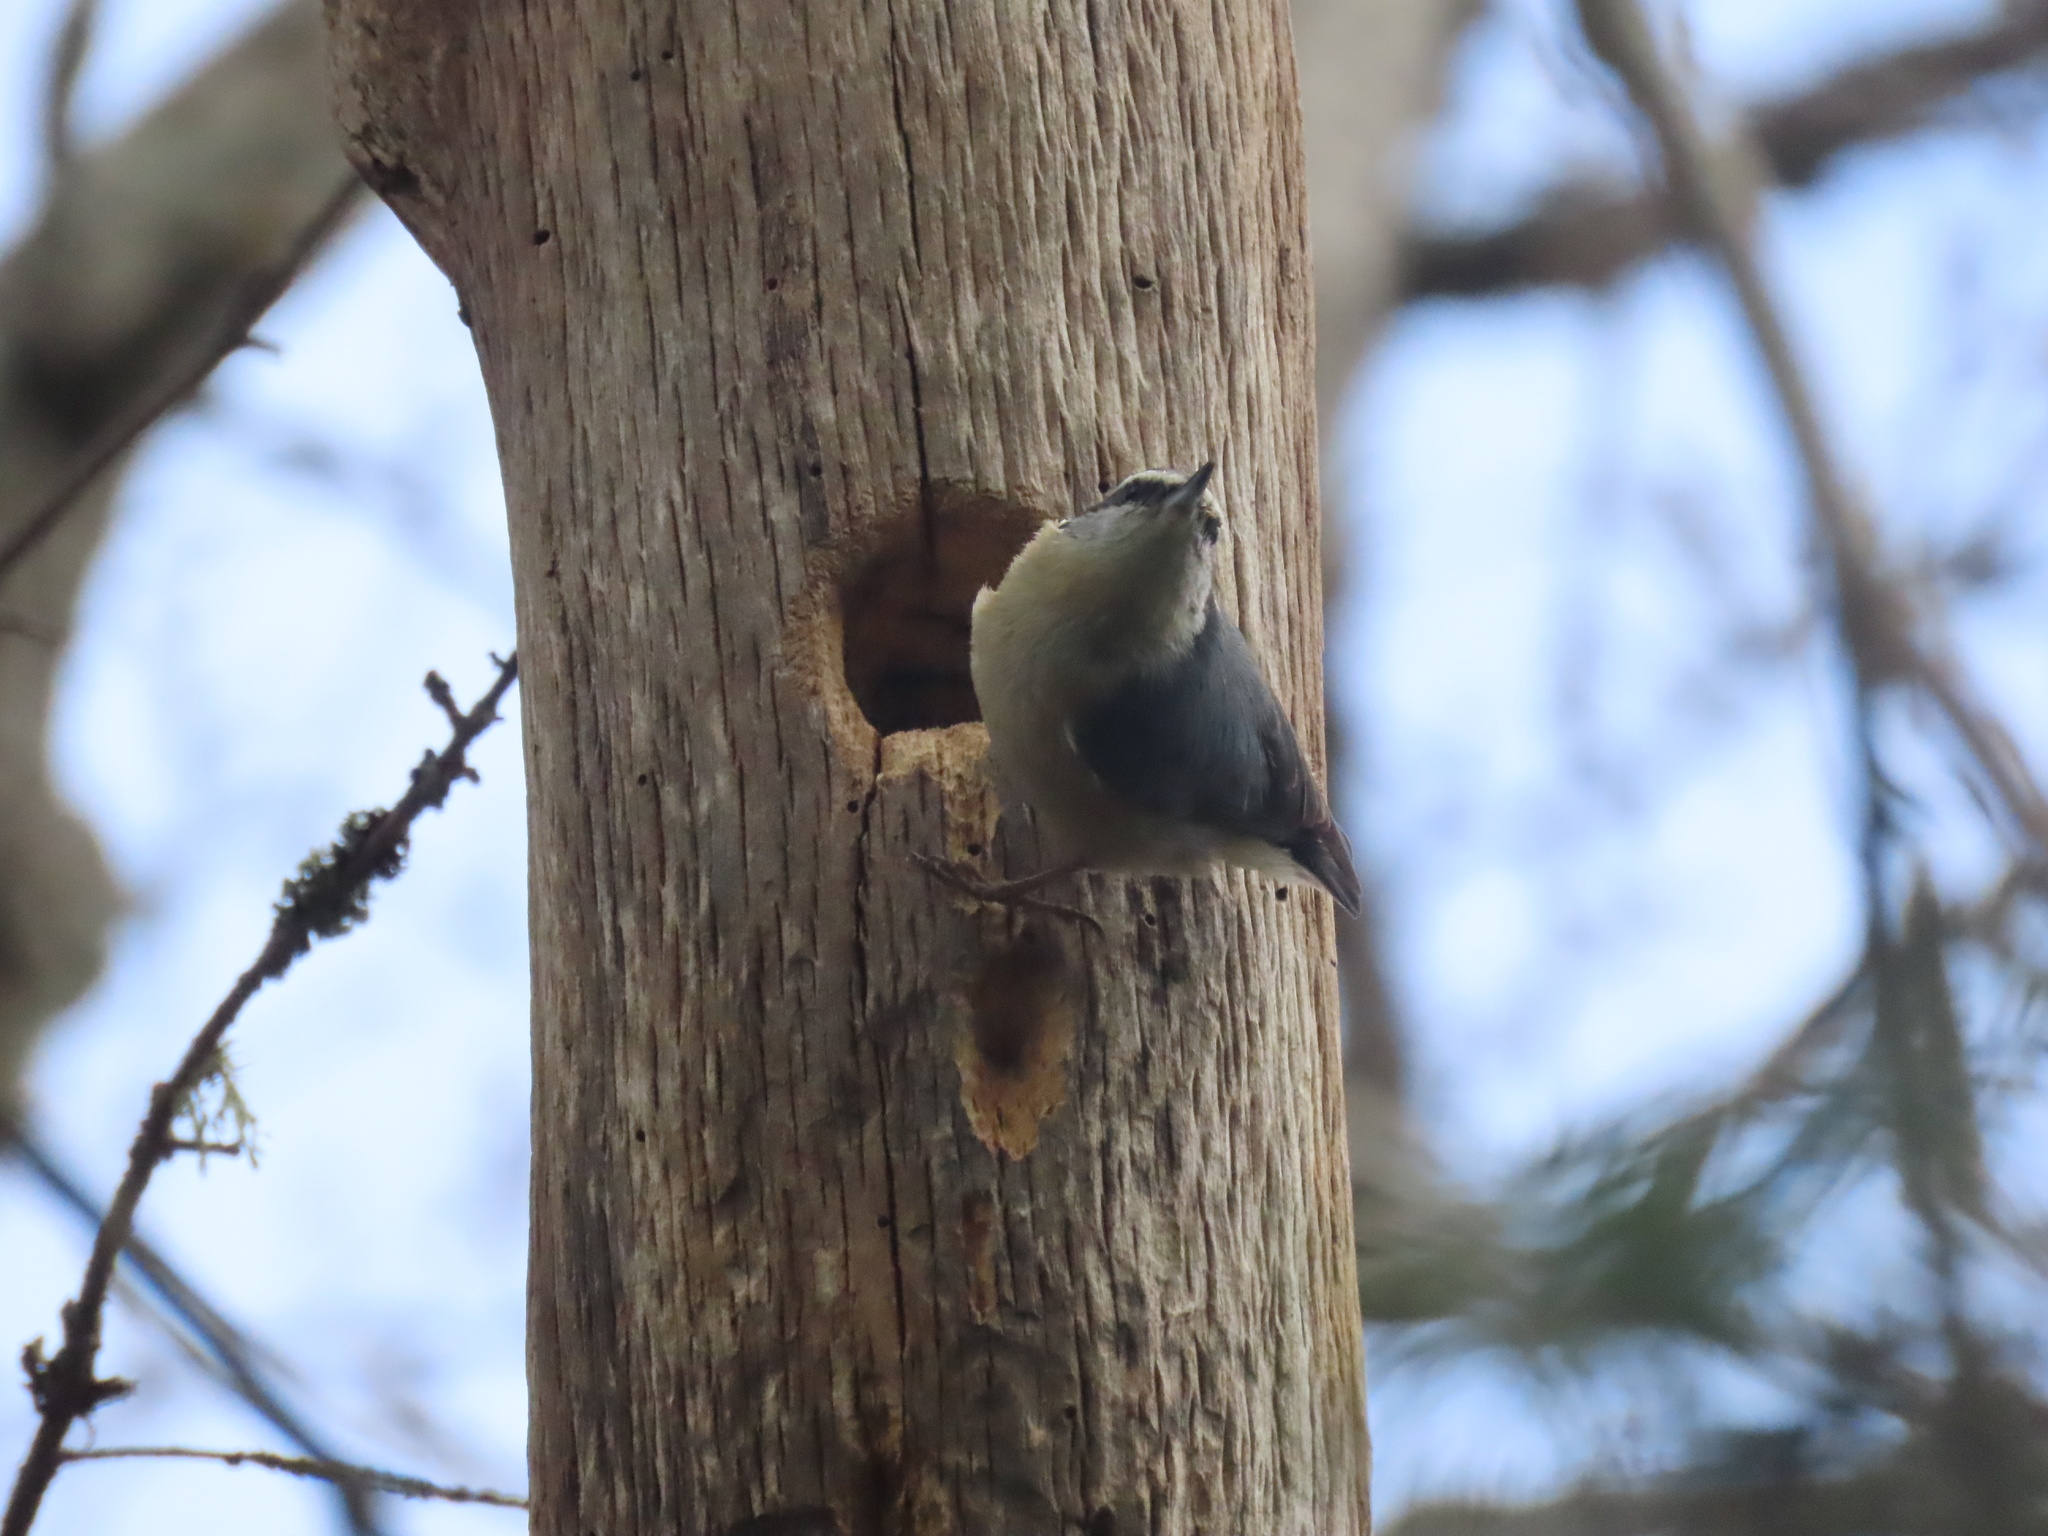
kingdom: Animalia
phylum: Chordata
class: Aves
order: Passeriformes
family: Sittidae
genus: Sitta
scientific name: Sitta canadensis
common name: Red-breasted nuthatch
